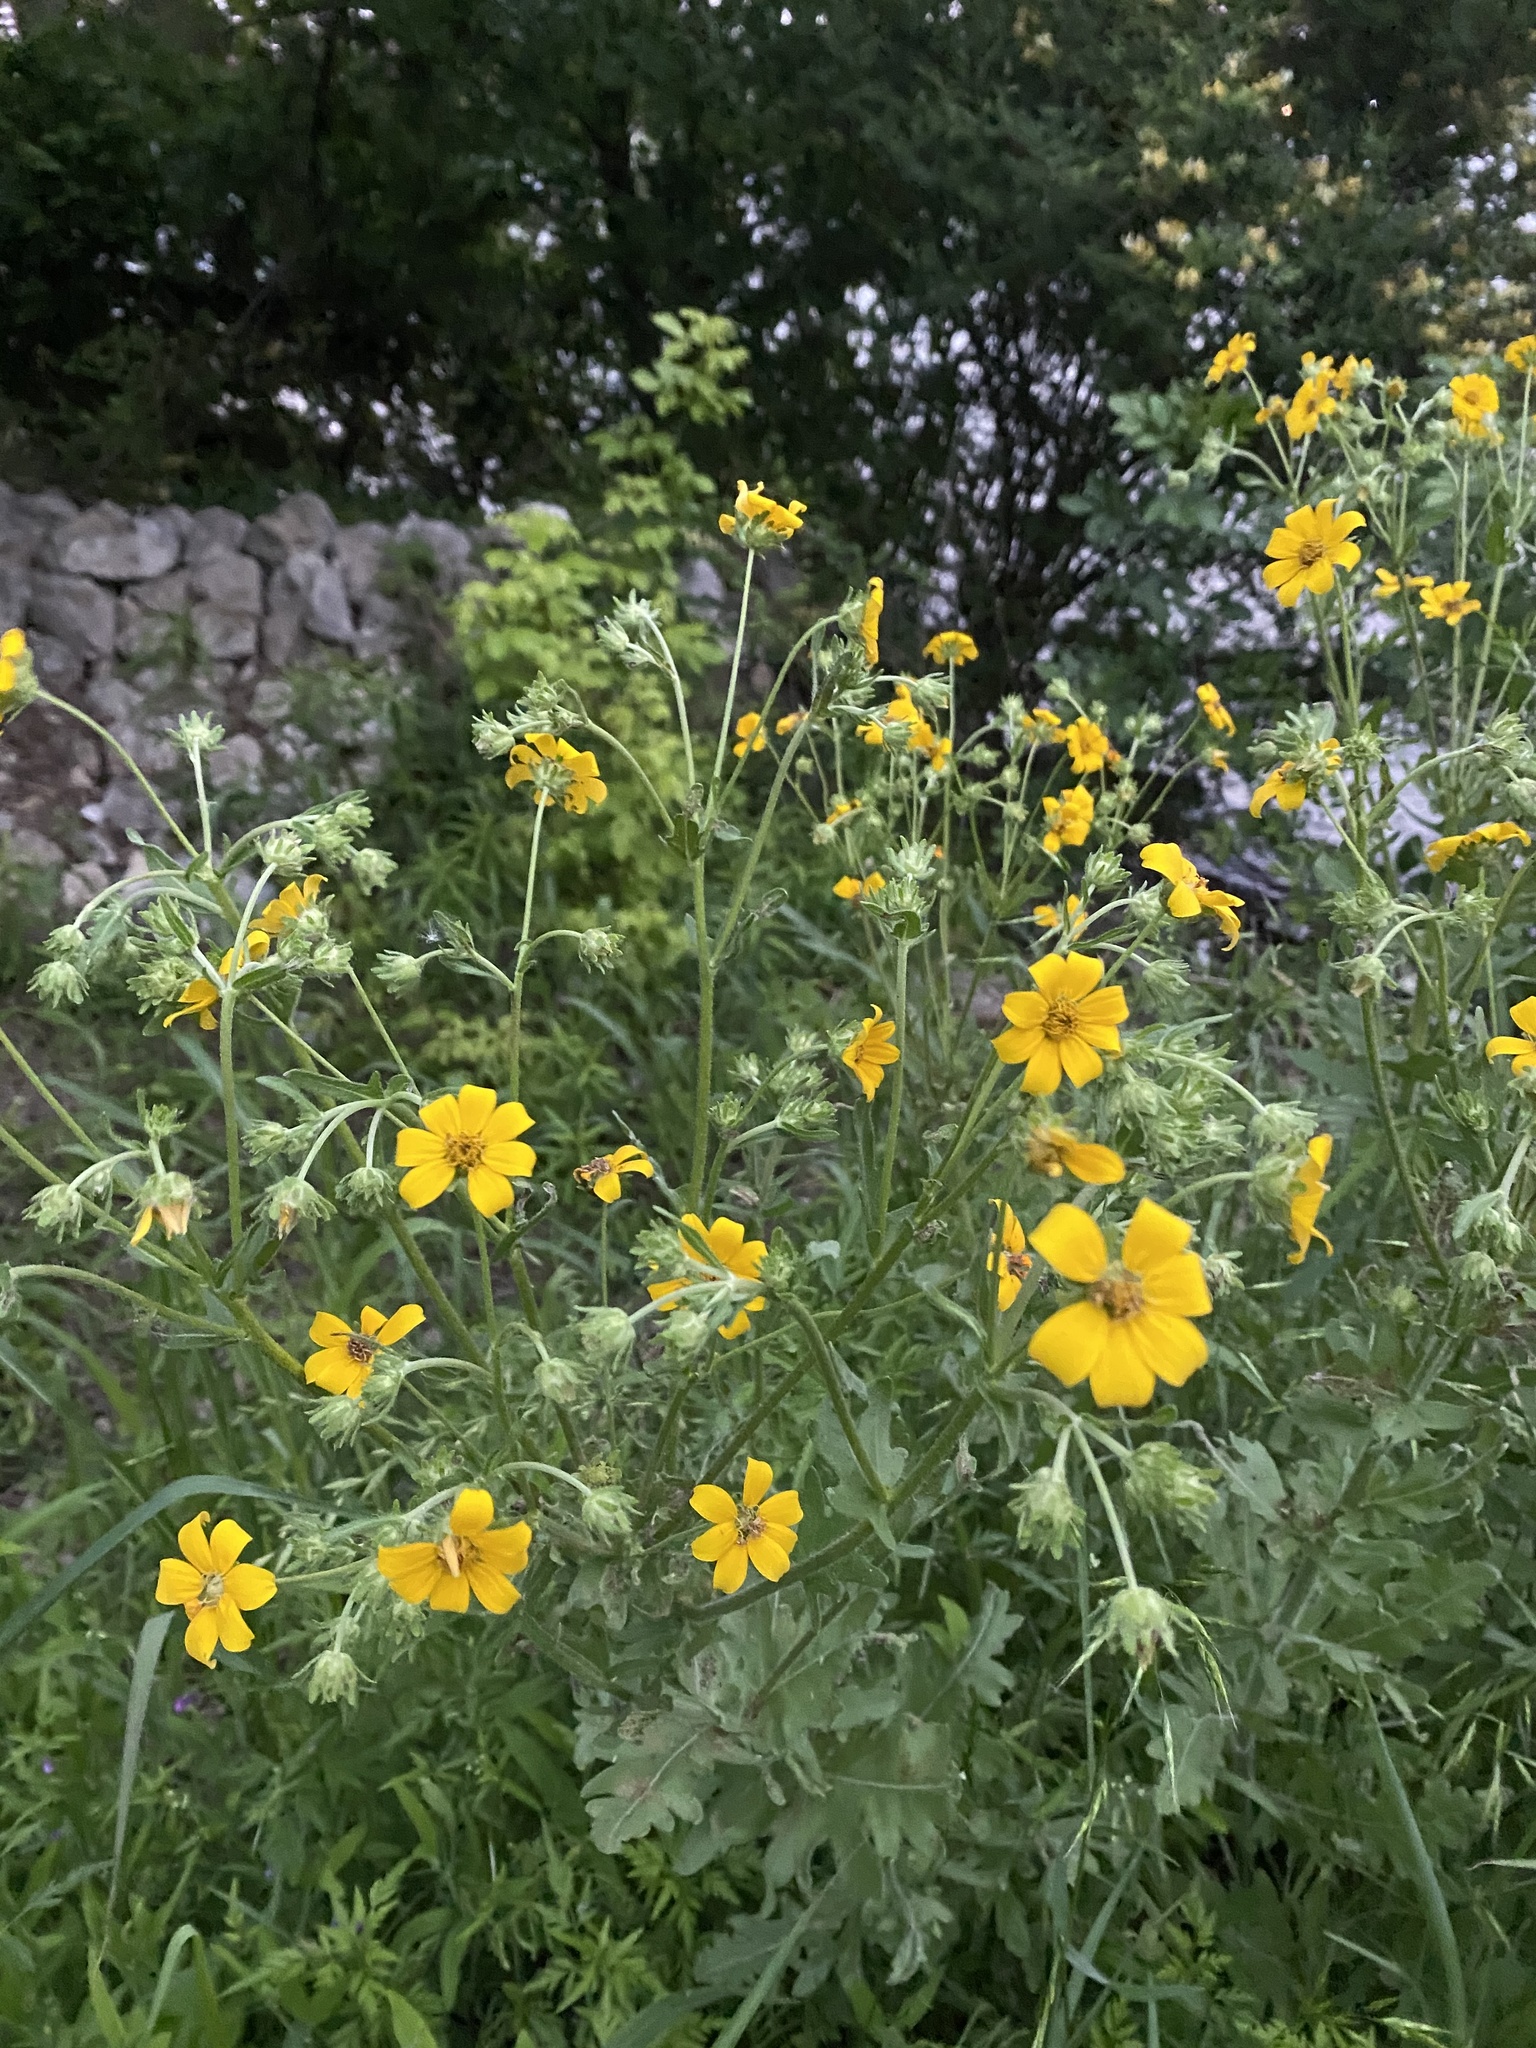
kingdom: Plantae
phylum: Tracheophyta
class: Magnoliopsida
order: Asterales
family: Asteraceae
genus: Engelmannia
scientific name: Engelmannia peristenia
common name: Engelmann's daisy
